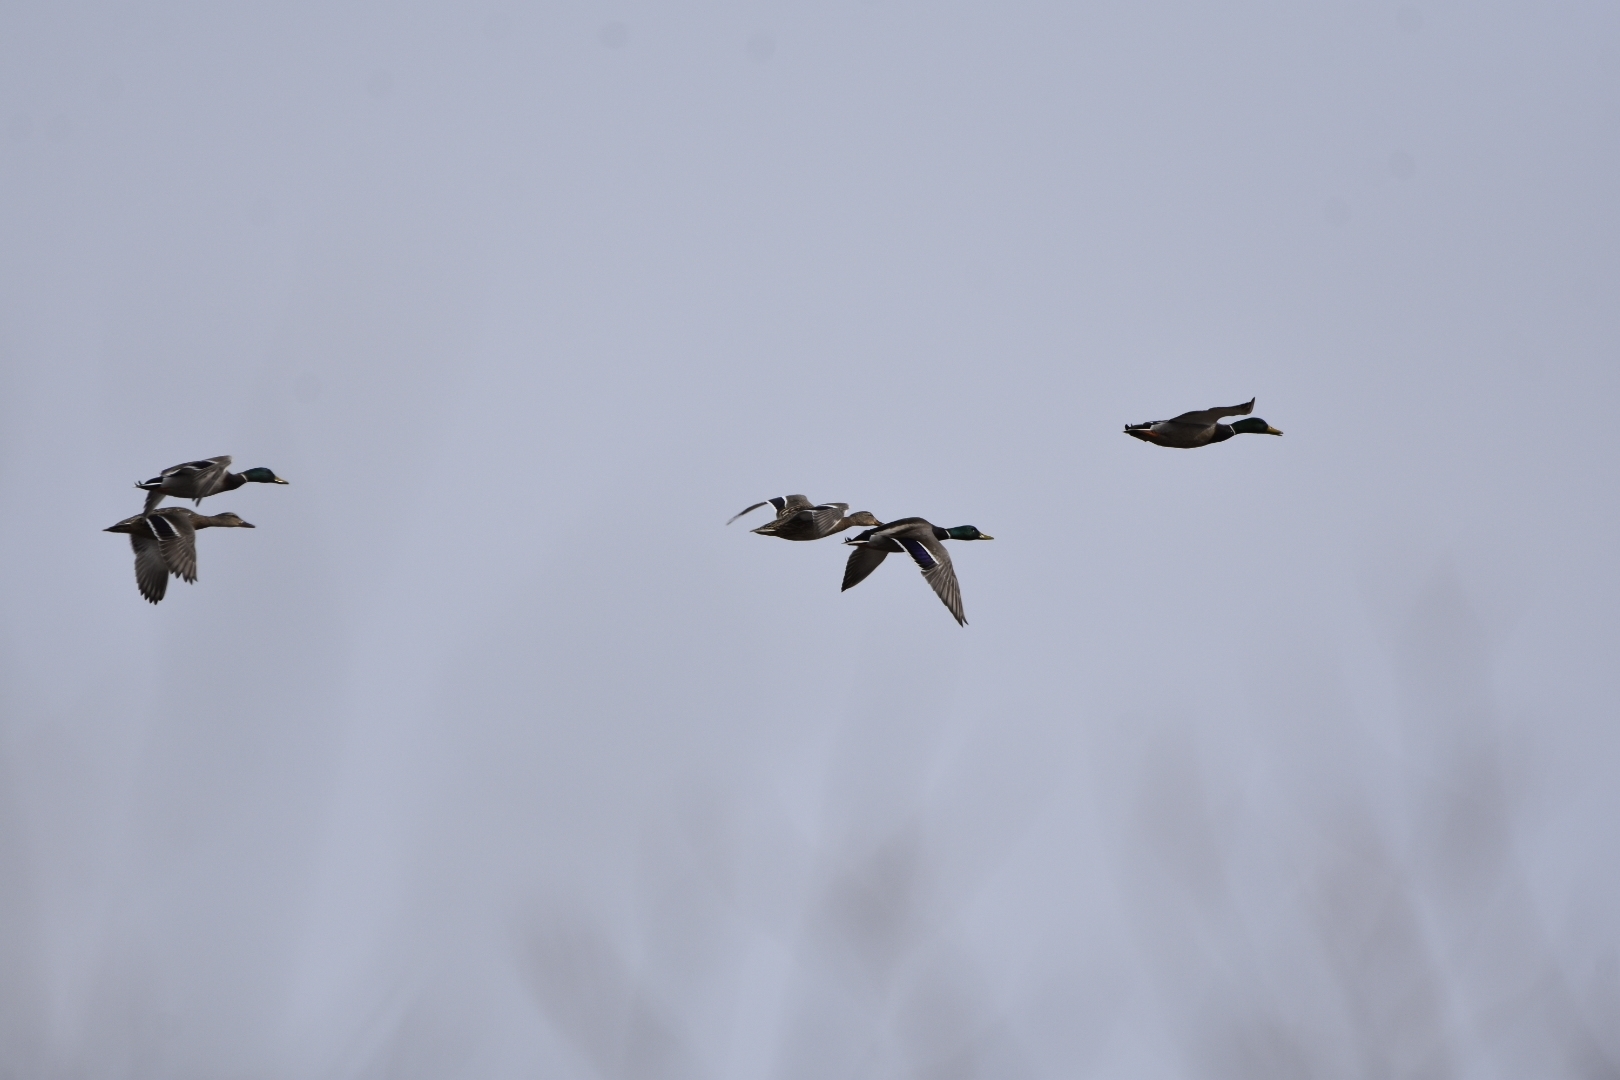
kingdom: Animalia
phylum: Chordata
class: Aves
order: Anseriformes
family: Anatidae
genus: Anas
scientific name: Anas platyrhynchos
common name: Mallard
